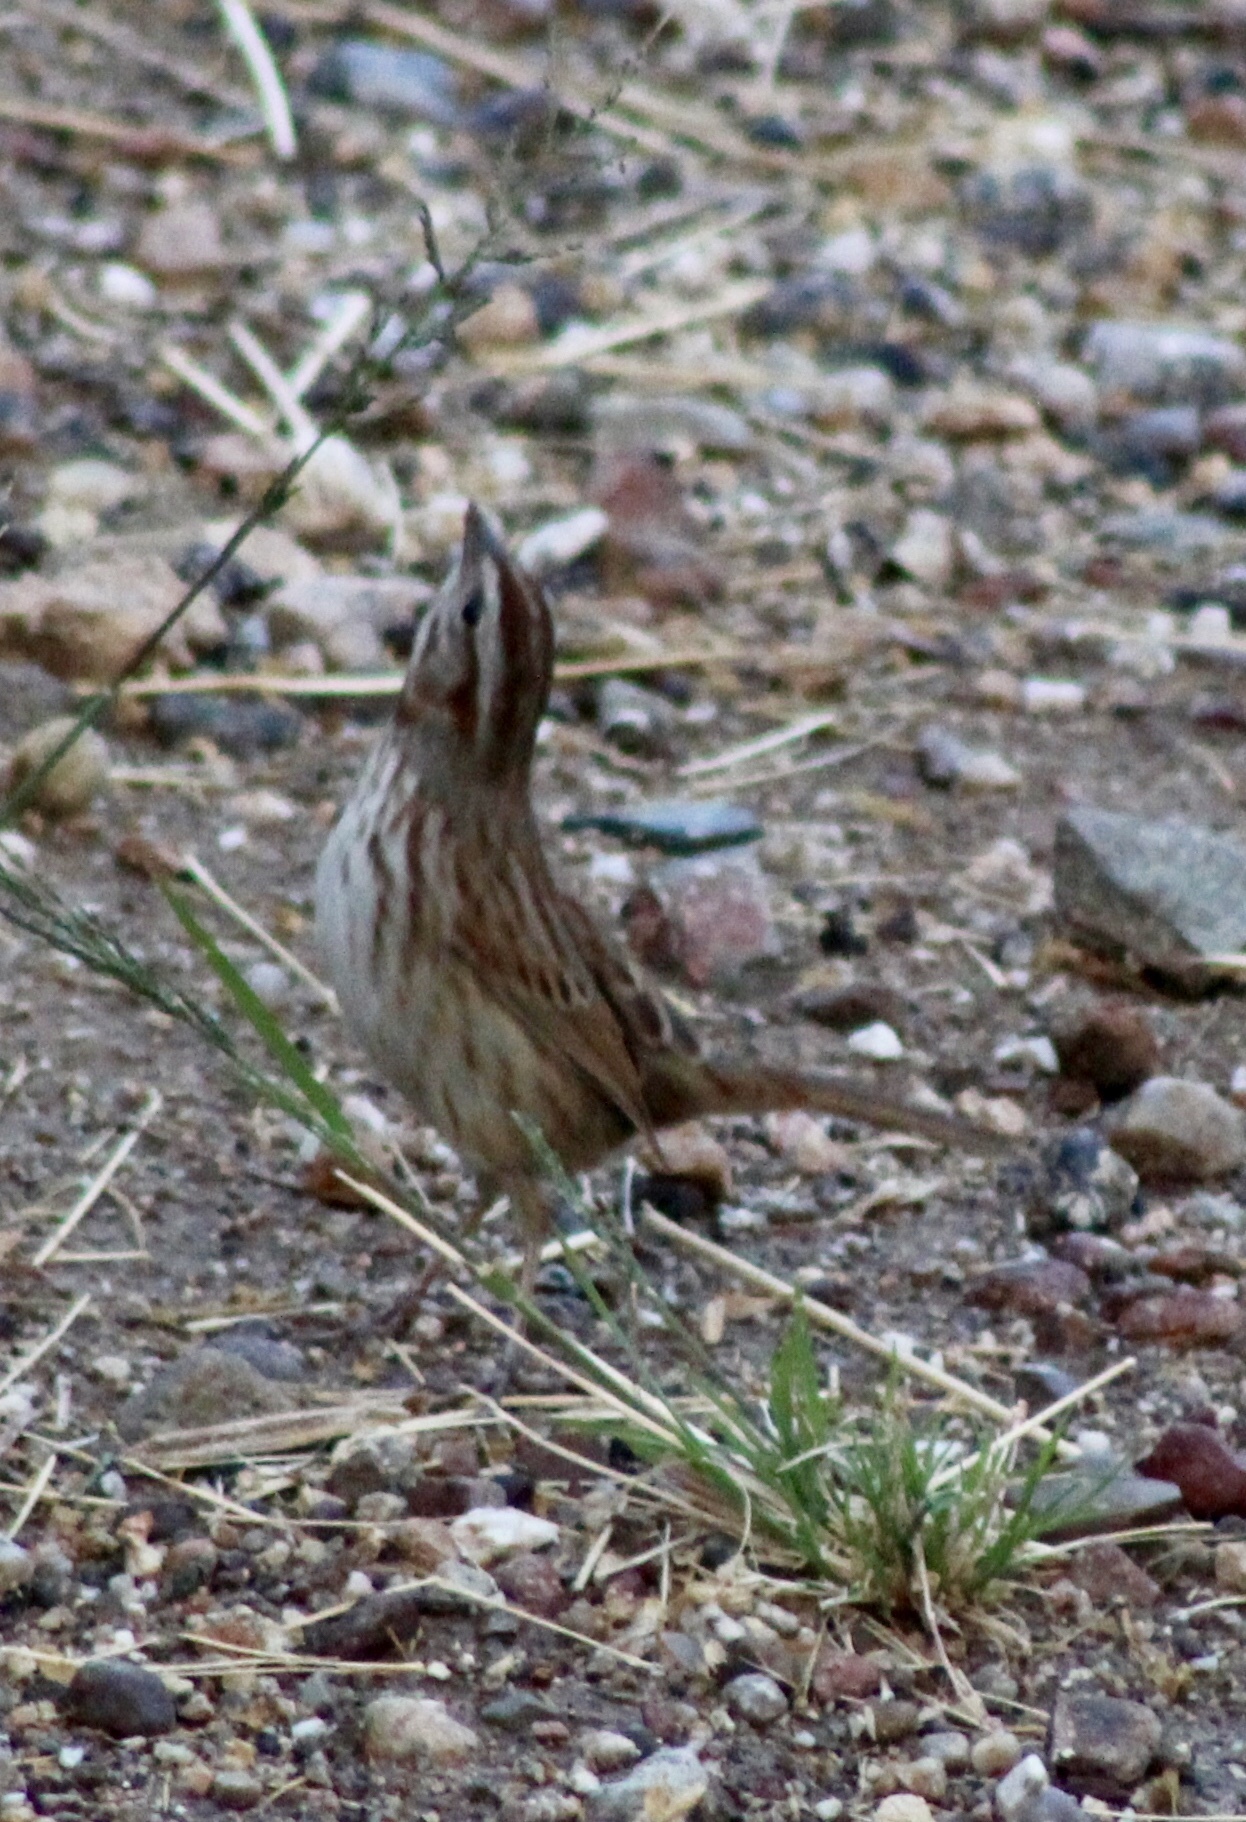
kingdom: Animalia
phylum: Chordata
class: Aves
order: Passeriformes
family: Passerellidae
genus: Melospiza
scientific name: Melospiza melodia
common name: Song sparrow
